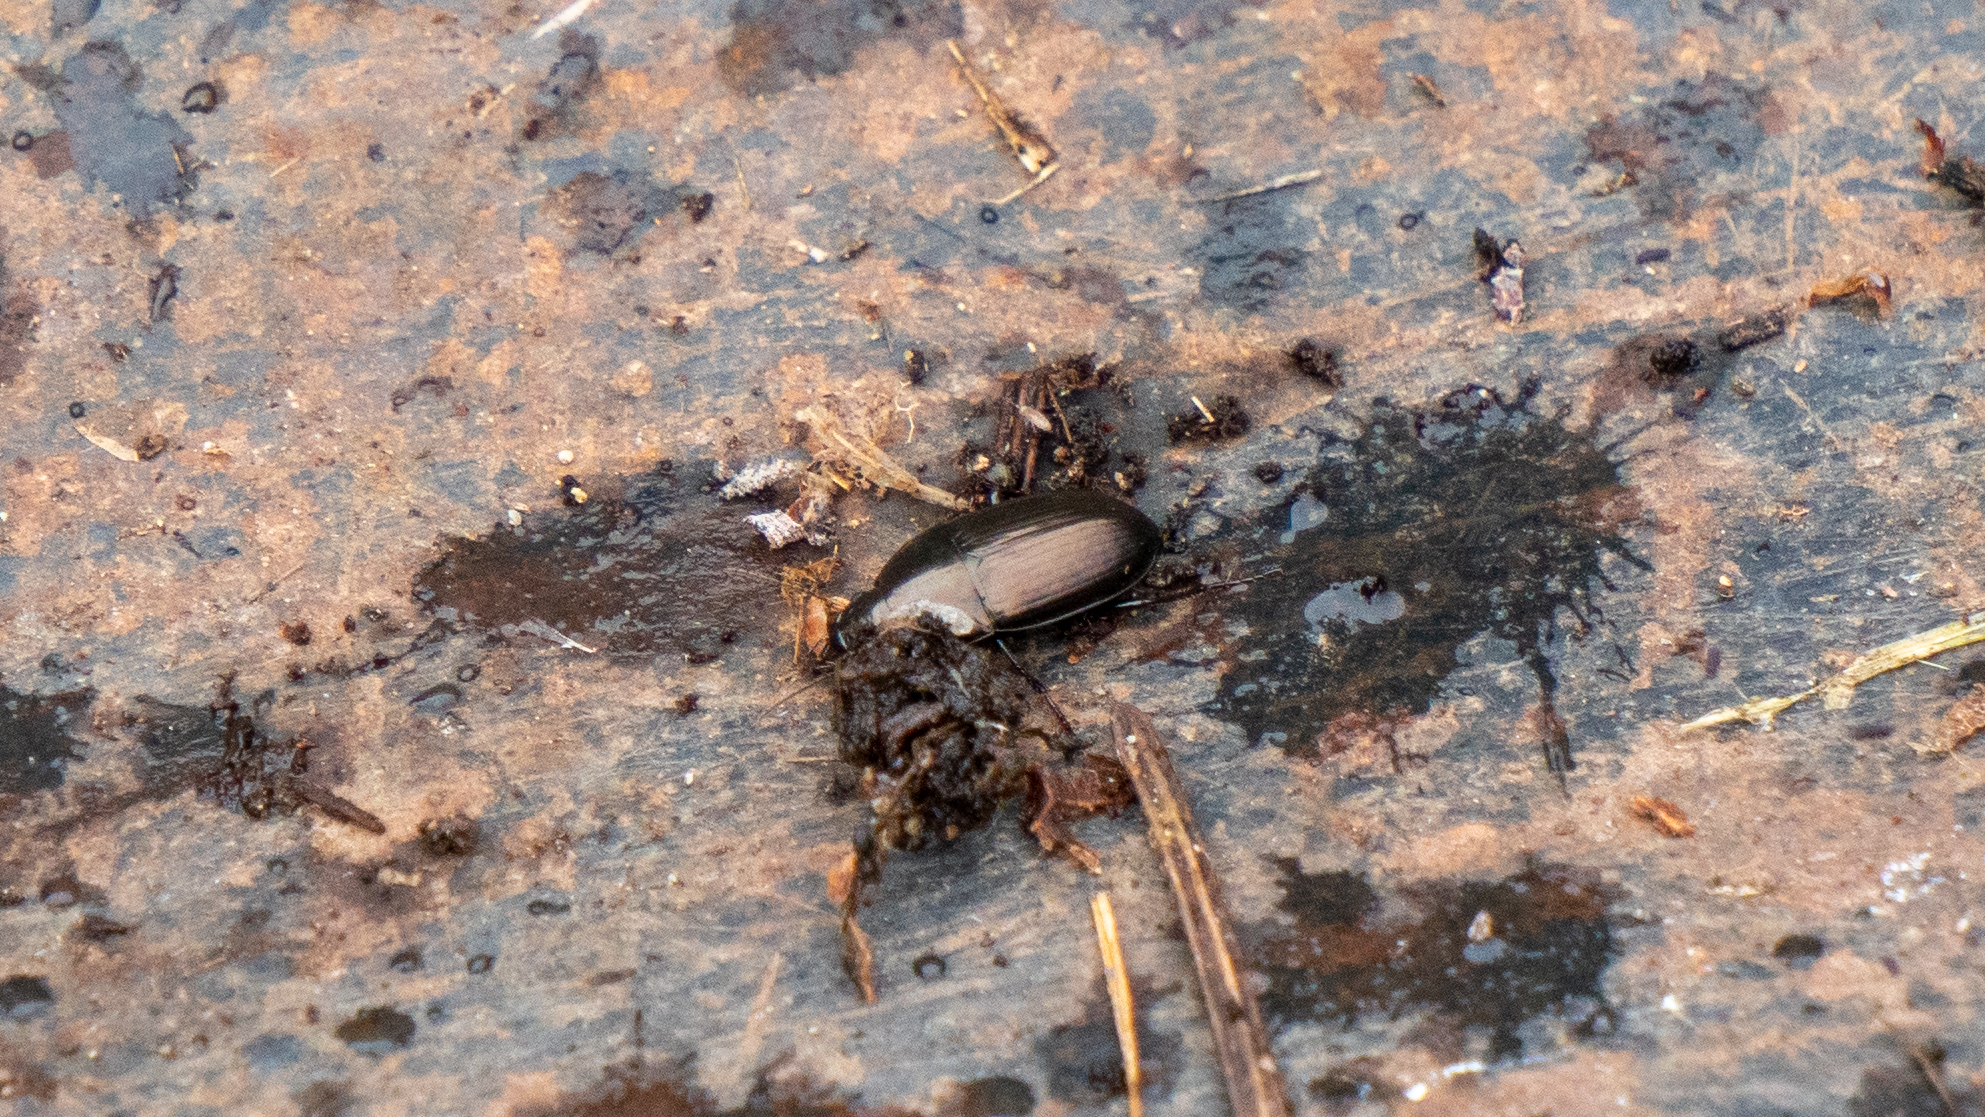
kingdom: Animalia
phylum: Arthropoda
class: Insecta
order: Coleoptera
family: Carabidae
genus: Amara
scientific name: Amara aenea
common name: Common sun beetle
